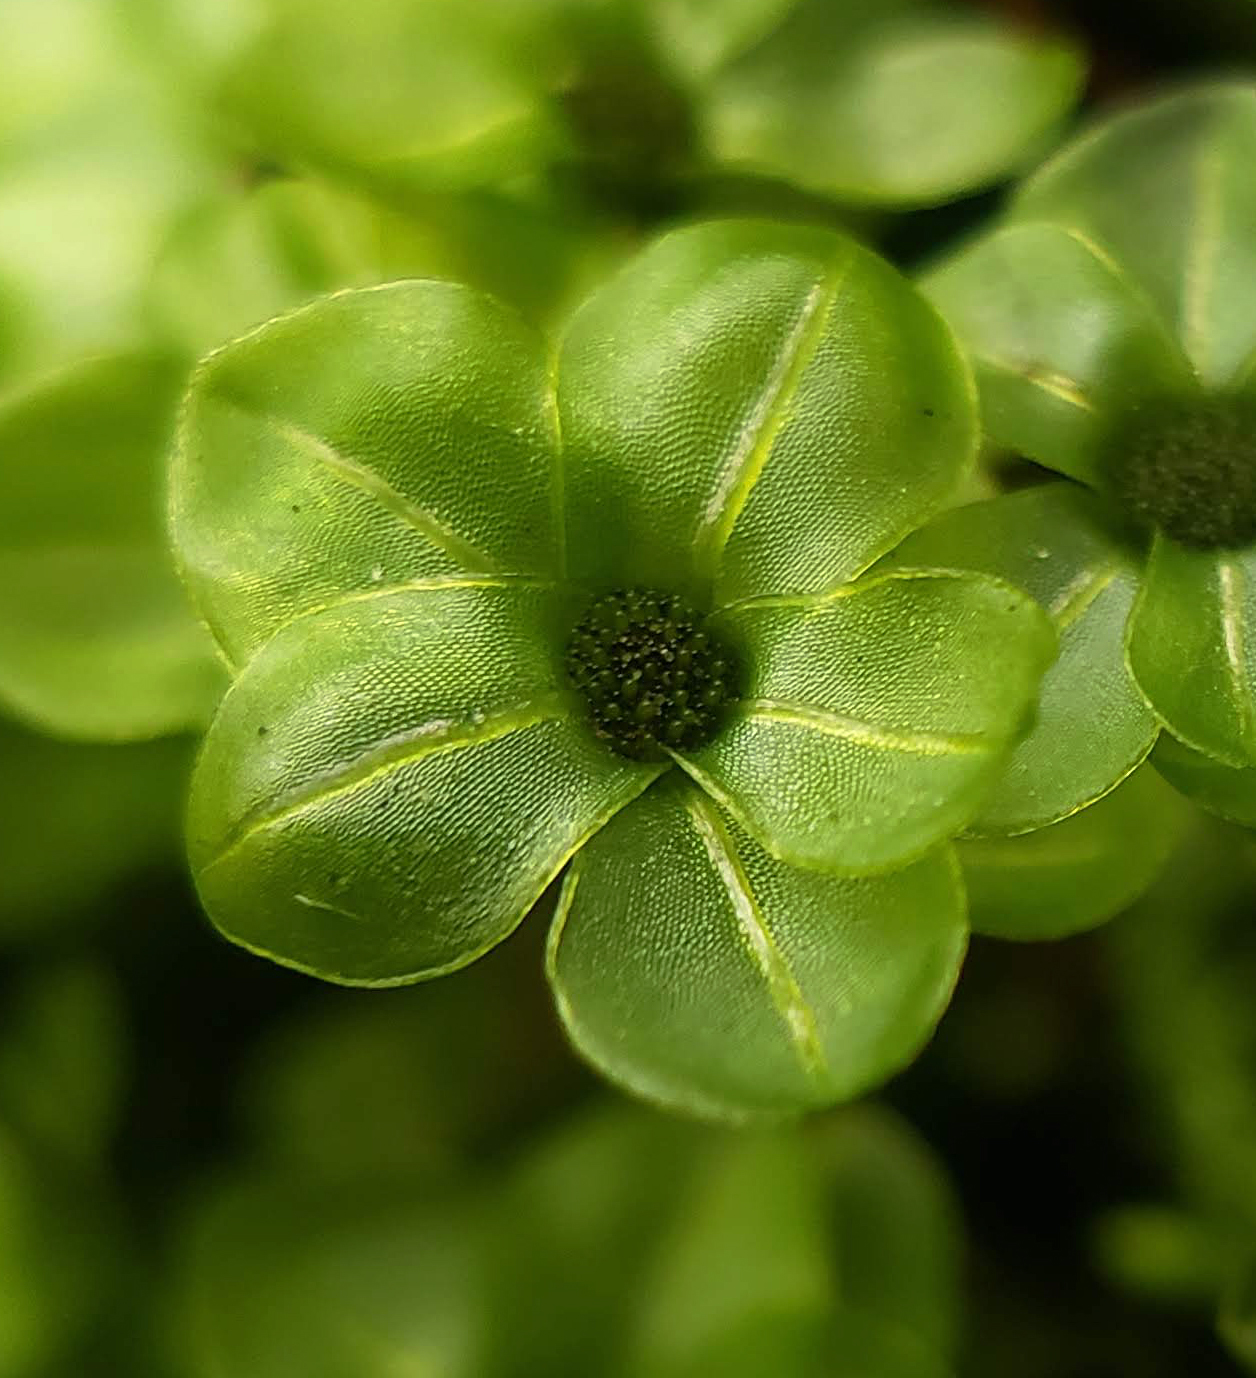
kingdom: Plantae
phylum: Bryophyta
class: Bryopsida
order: Bryales
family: Mniaceae
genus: Rhizomnium
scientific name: Rhizomnium punctatum
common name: Dotted leafy moss
